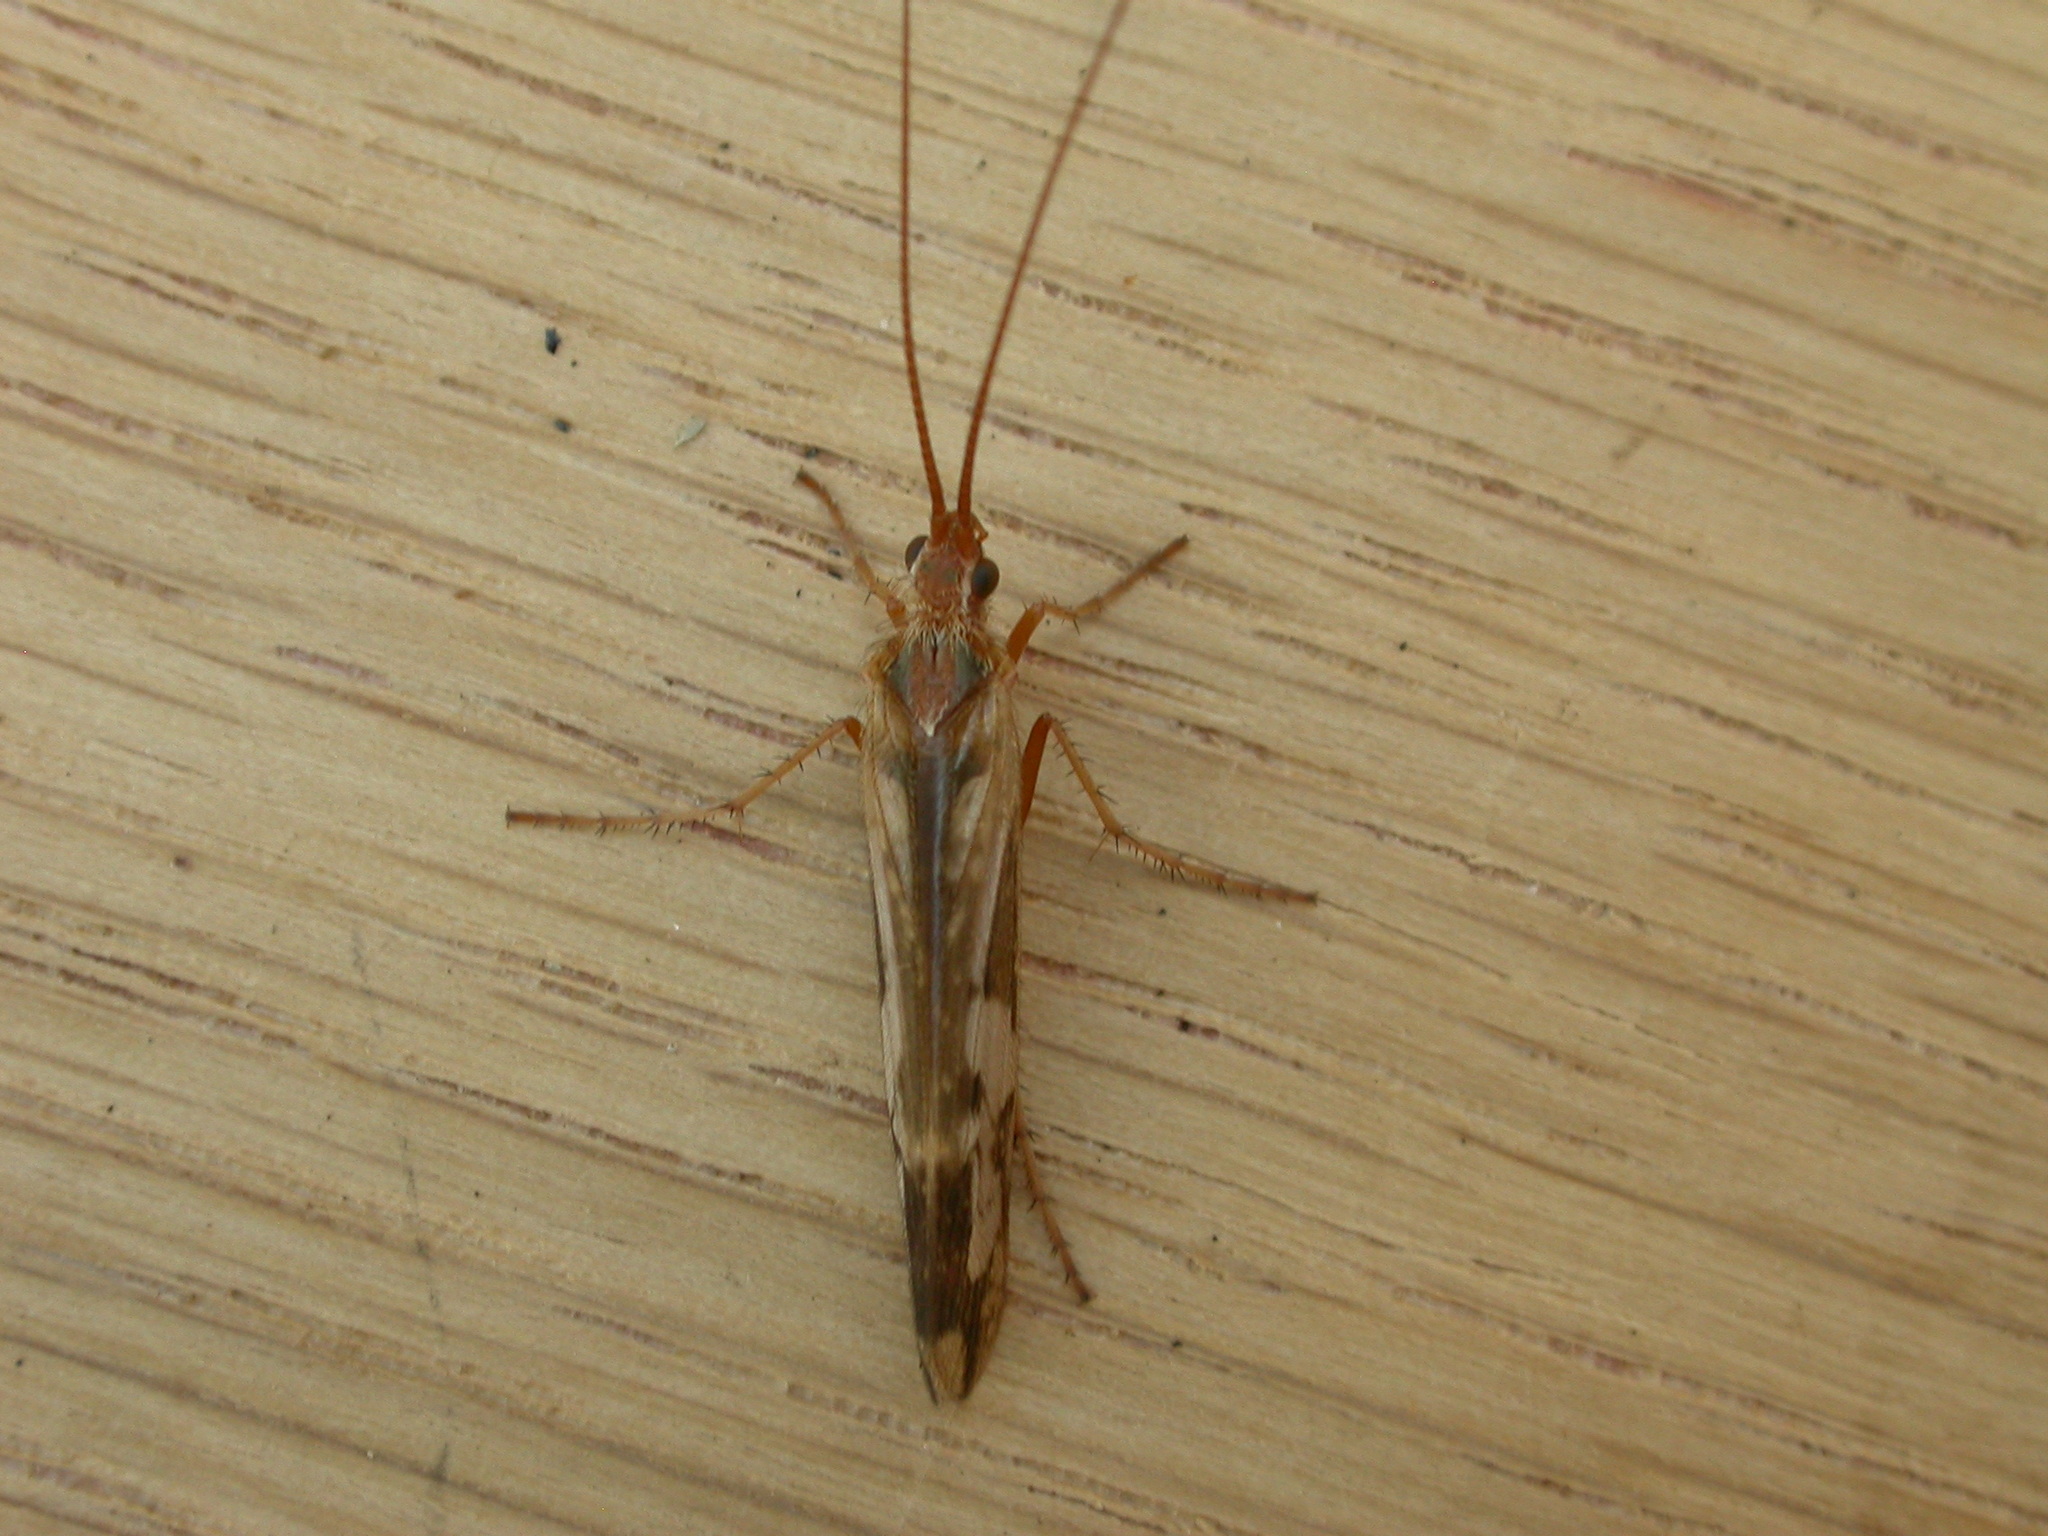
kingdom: Animalia
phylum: Arthropoda
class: Insecta
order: Trichoptera
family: Limnephilidae
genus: Limnephilus
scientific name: Limnephilus lunatus
